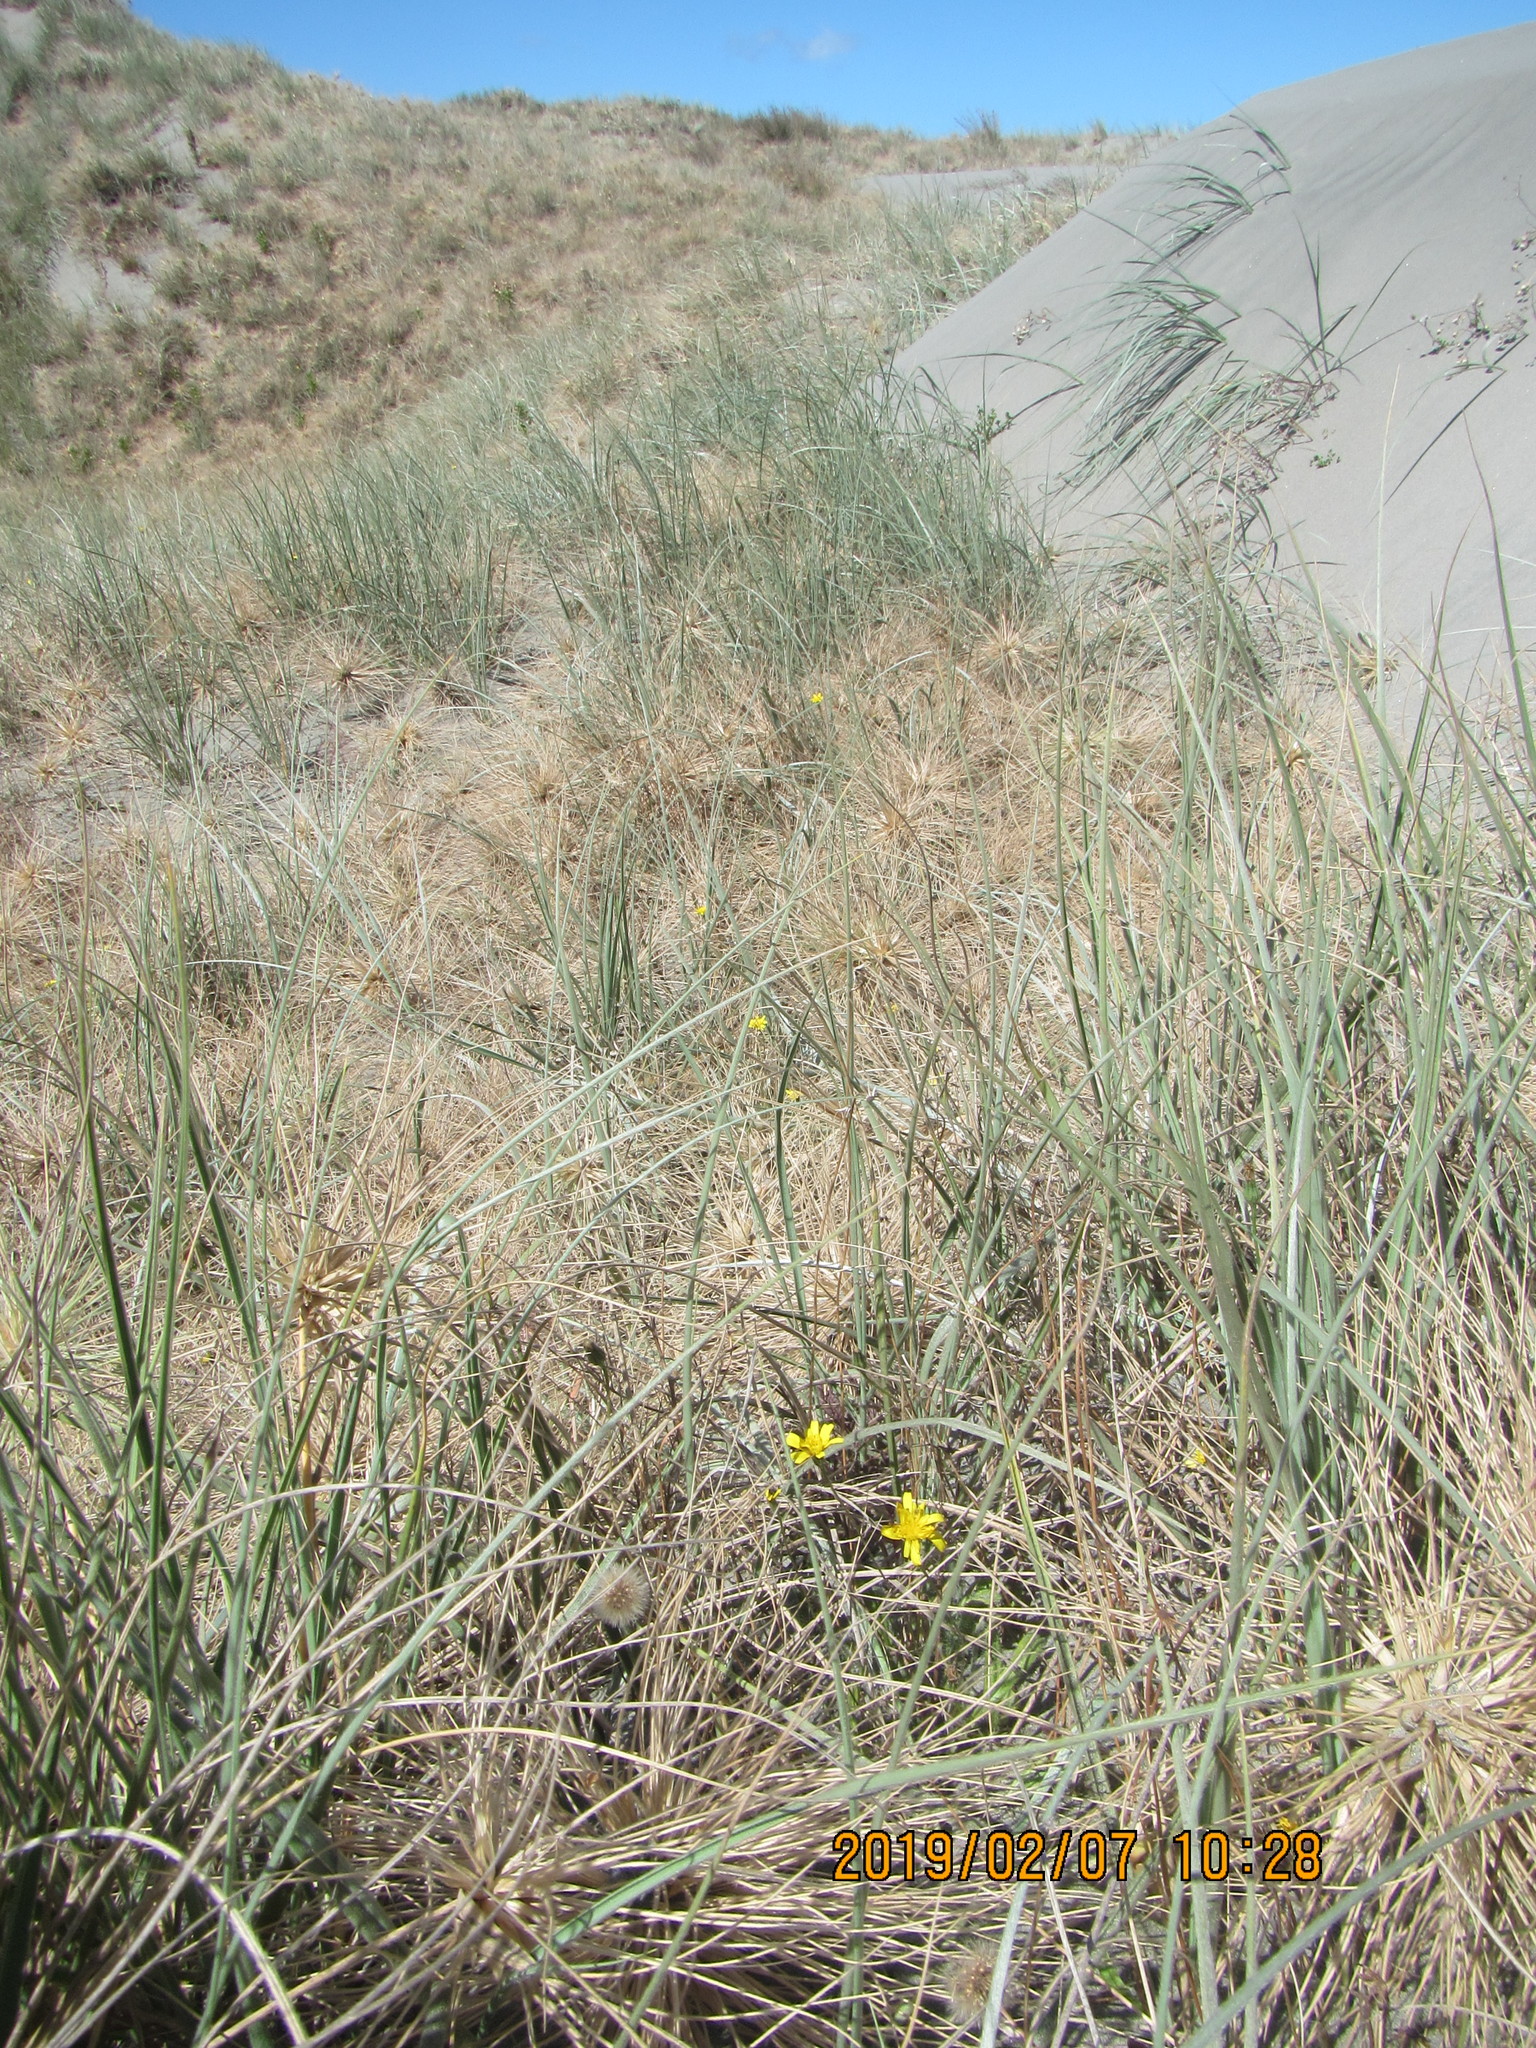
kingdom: Plantae
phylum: Tracheophyta
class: Liliopsida
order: Poales
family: Poaceae
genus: Spinifex
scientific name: Spinifex sericeus
